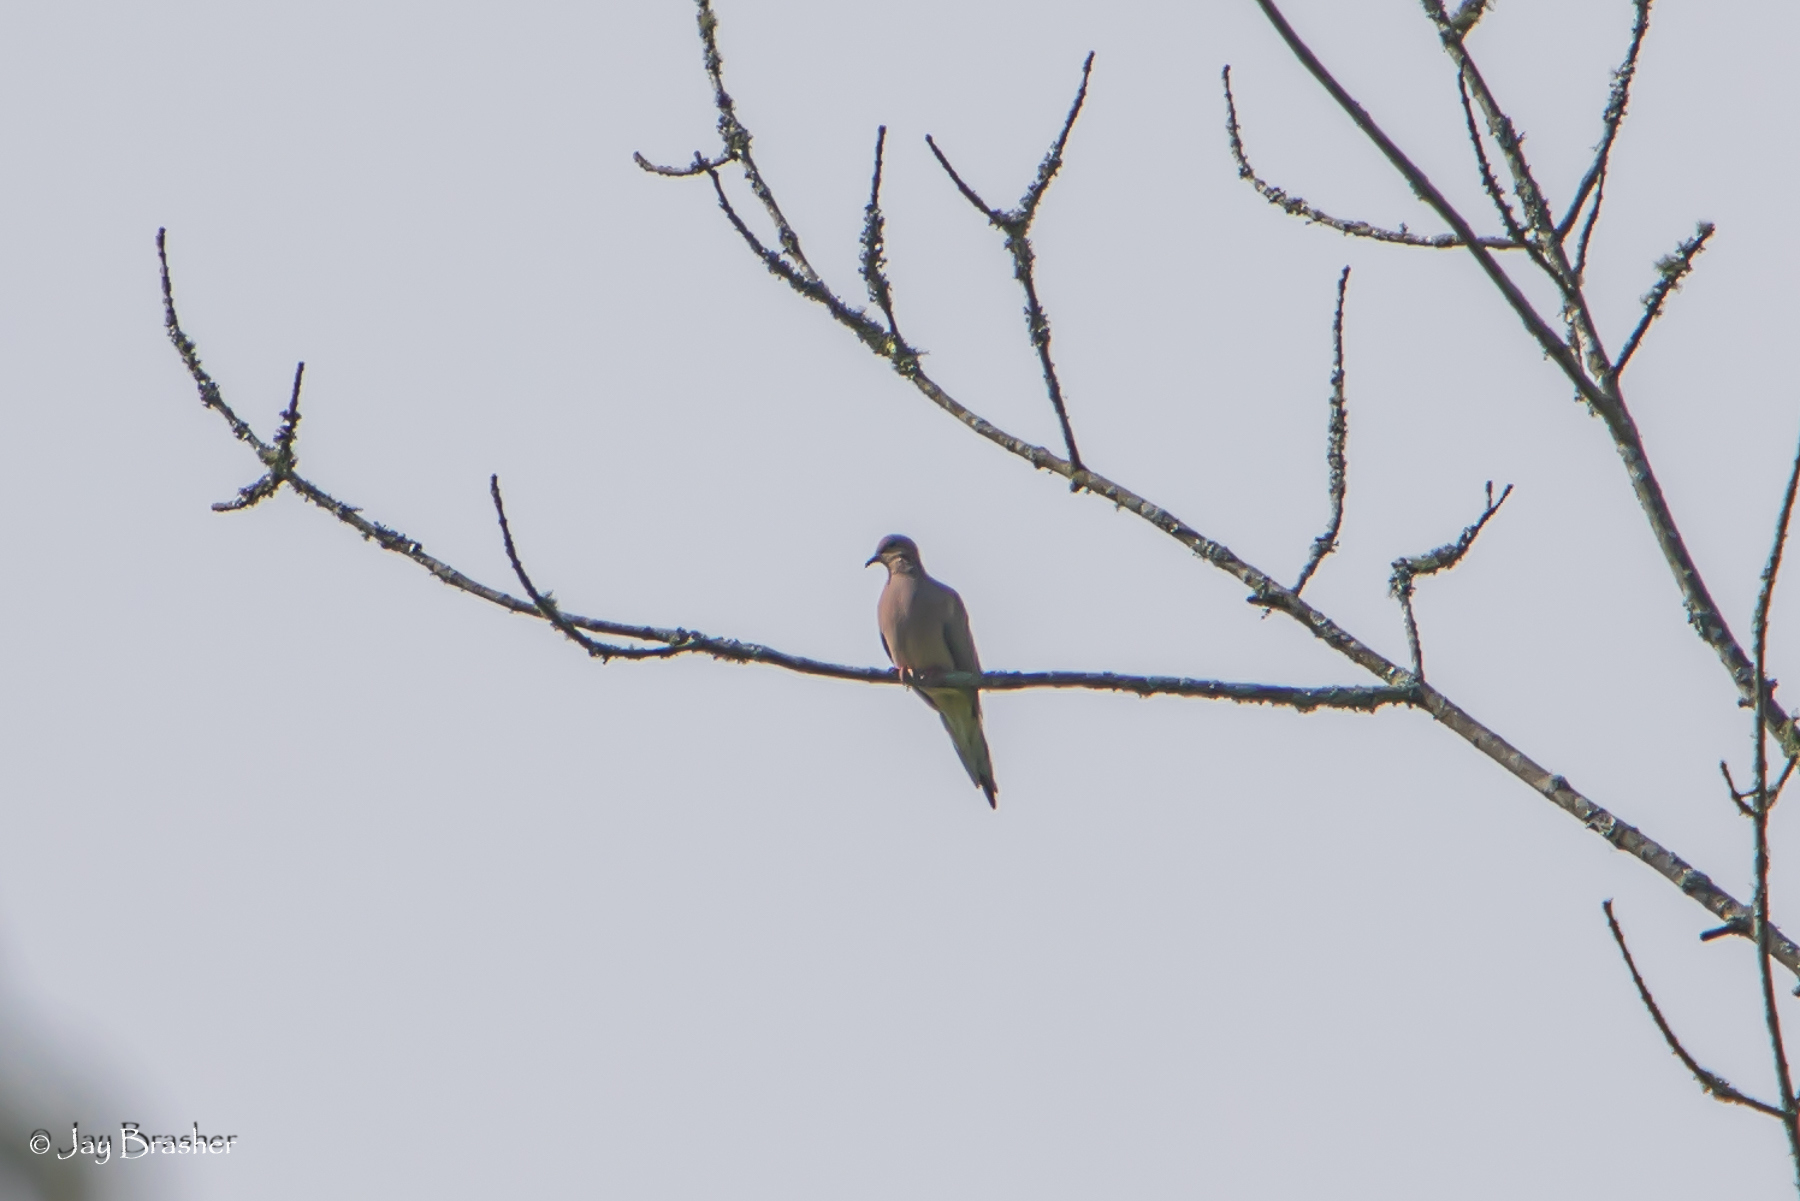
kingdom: Animalia
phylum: Chordata
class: Aves
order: Columbiformes
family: Columbidae
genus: Zenaida
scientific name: Zenaida macroura
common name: Mourning dove
